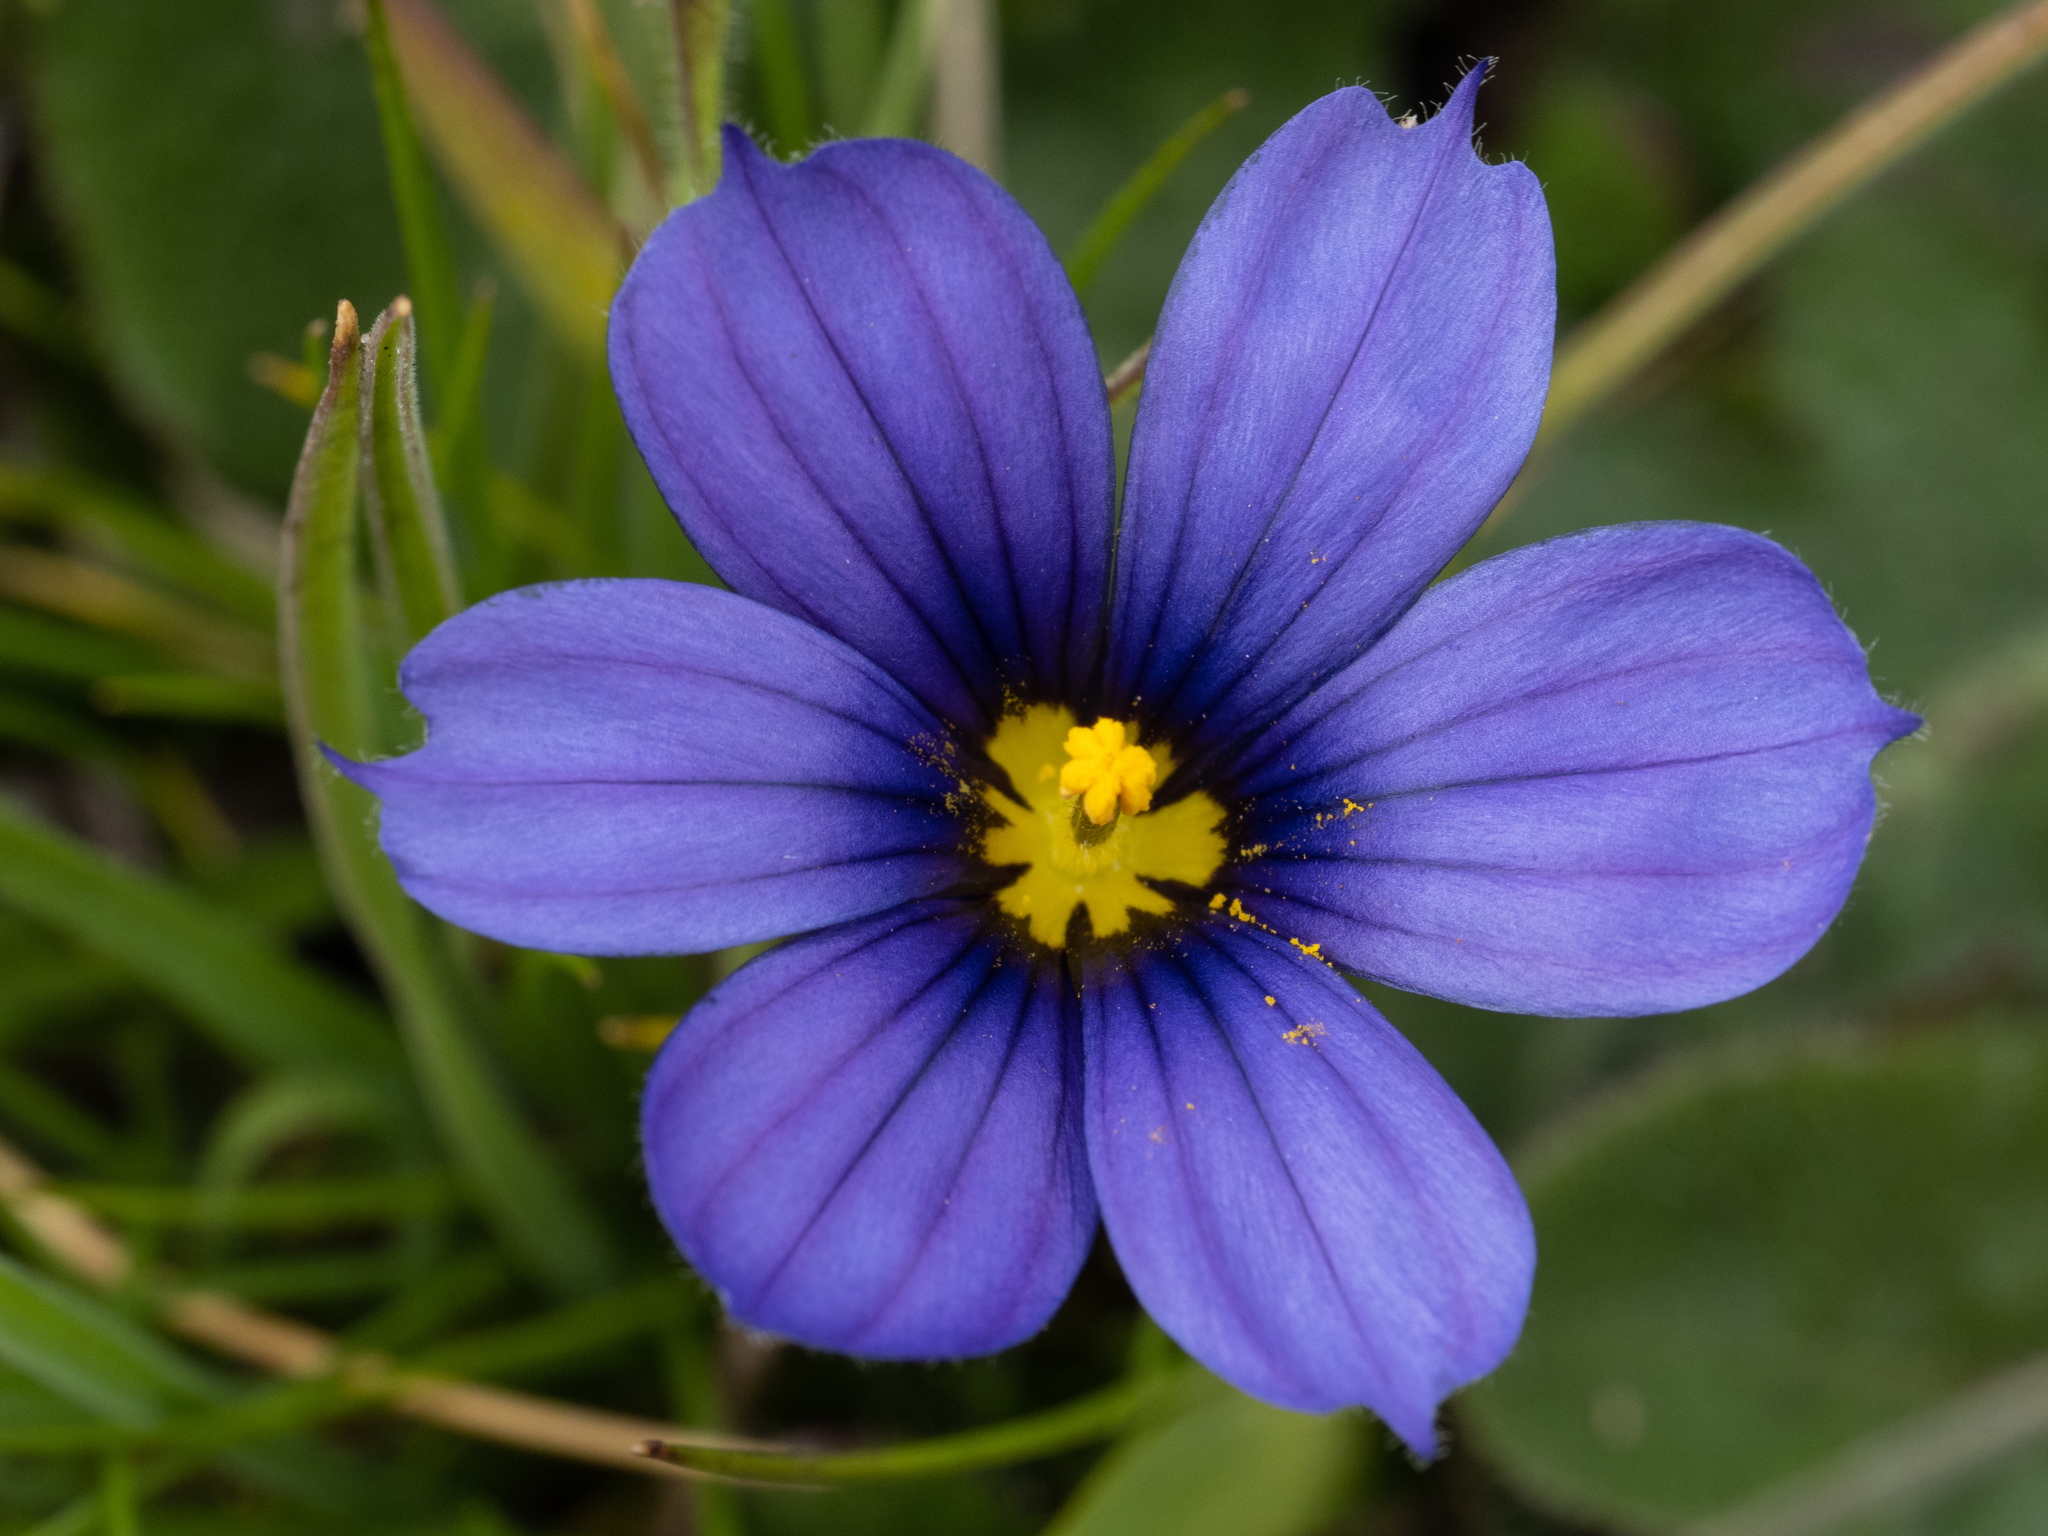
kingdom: Plantae
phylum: Tracheophyta
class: Liliopsida
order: Asparagales
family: Iridaceae
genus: Sisyrinchium
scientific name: Sisyrinchium bellum
